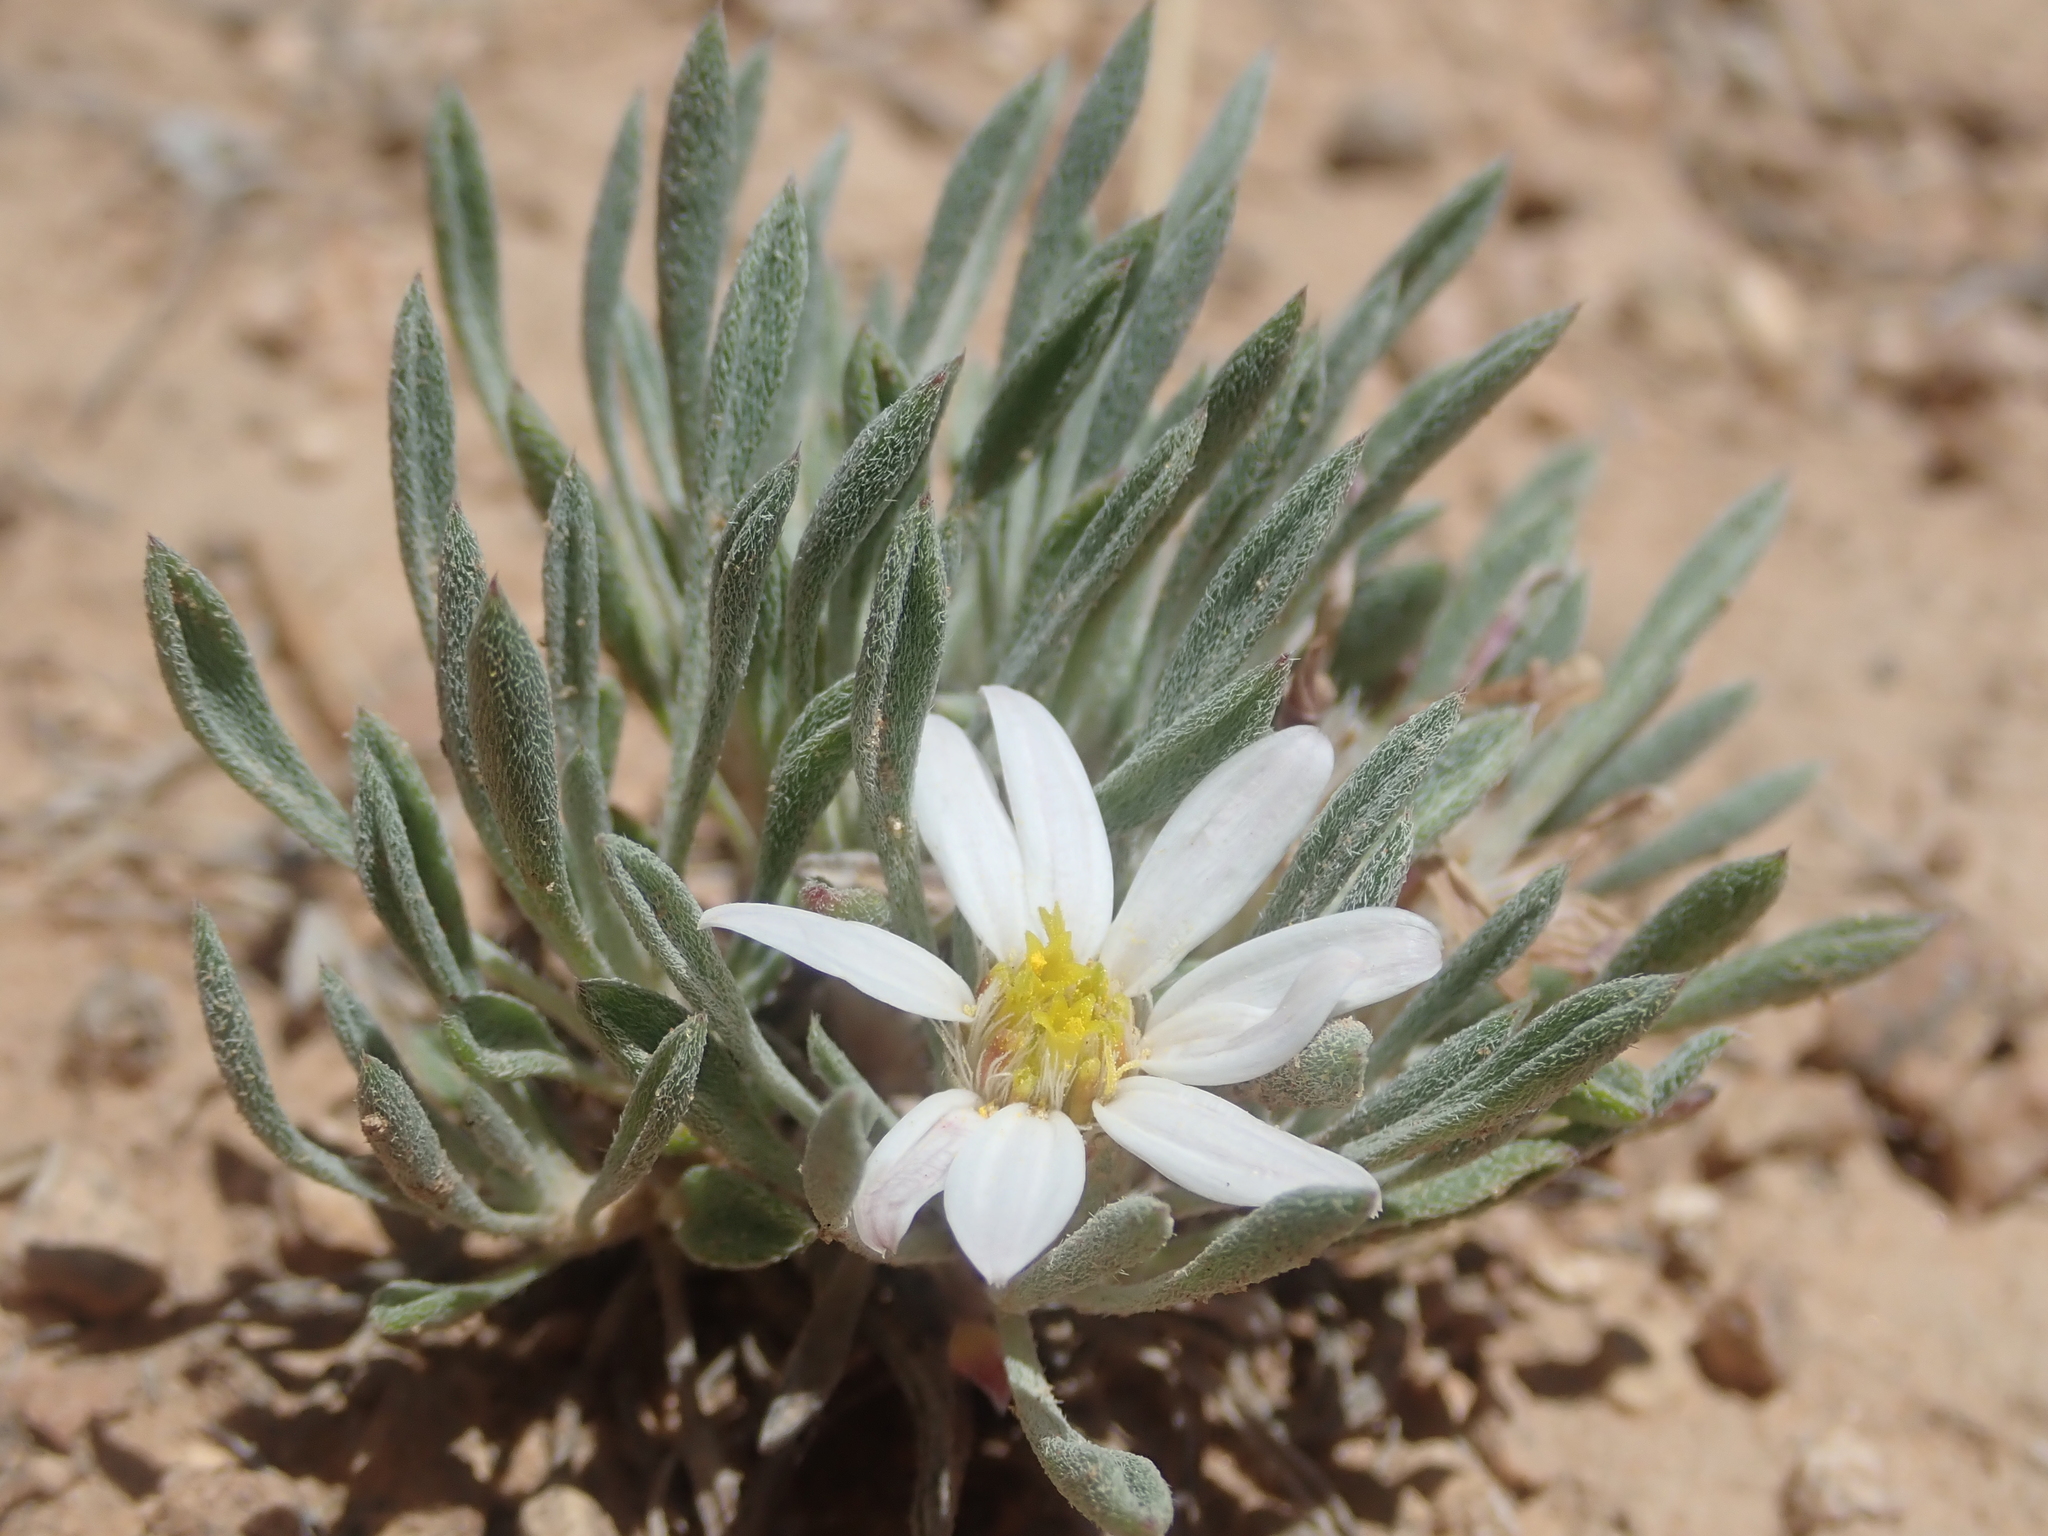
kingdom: Plantae
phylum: Tracheophyta
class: Magnoliopsida
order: Asterales
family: Asteraceae
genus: Townsendia
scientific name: Townsendia incana
